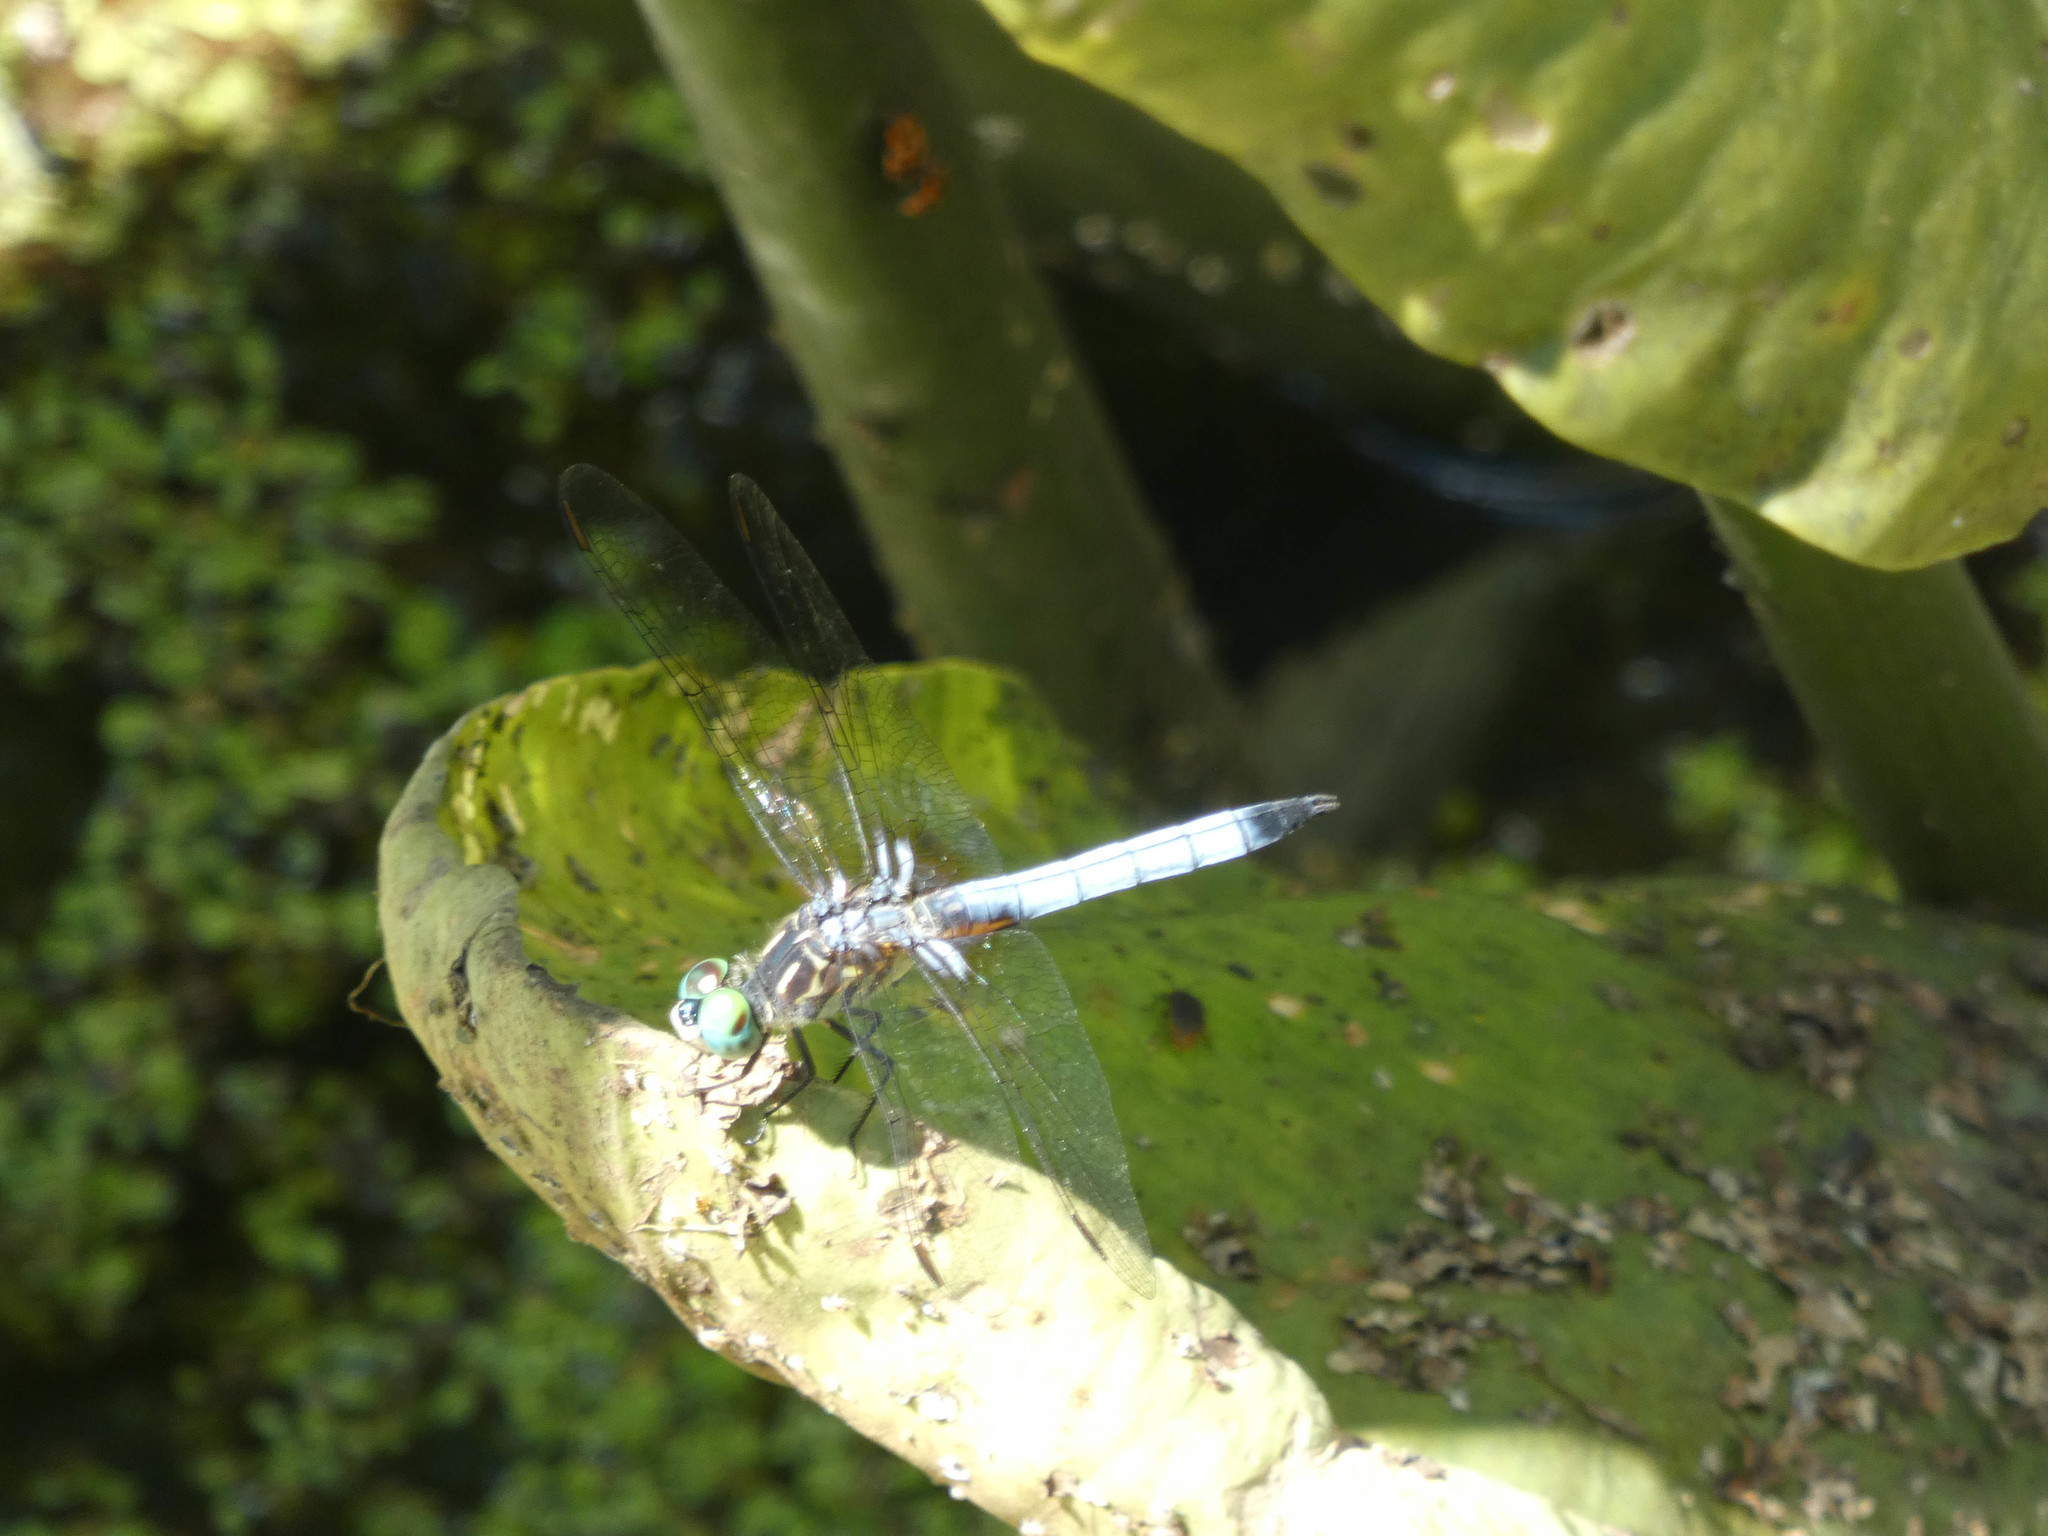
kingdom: Animalia
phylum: Arthropoda
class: Insecta
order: Odonata
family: Libellulidae
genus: Pachydiplax
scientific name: Pachydiplax longipennis
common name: Blue dasher
